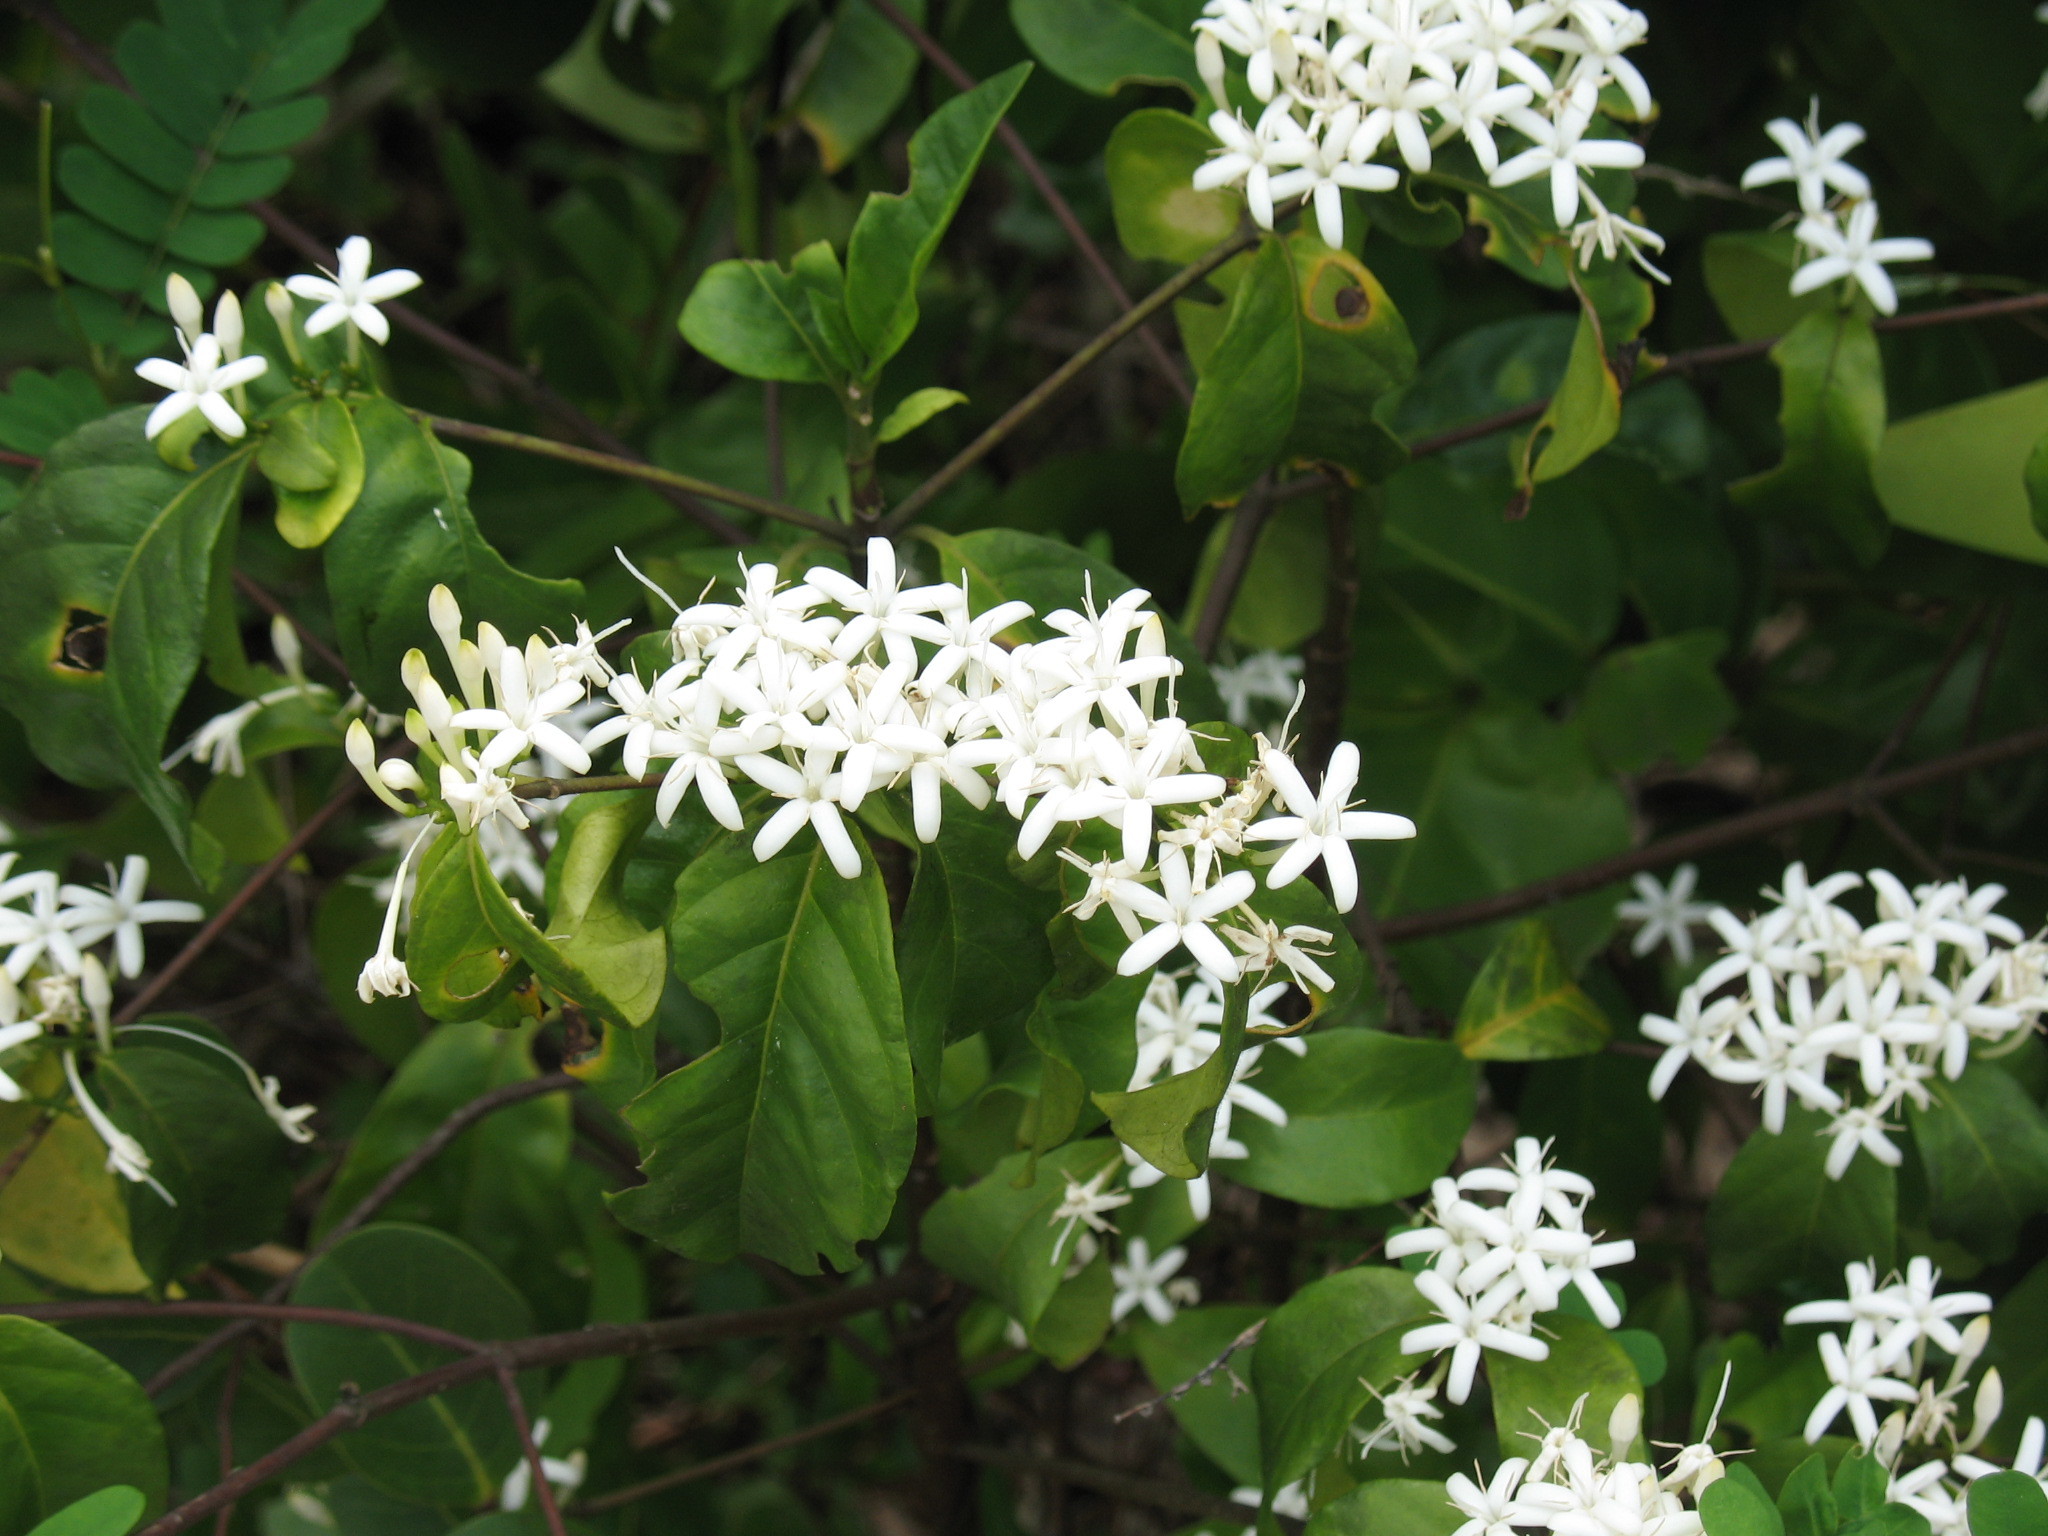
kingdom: Plantae
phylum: Tracheophyta
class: Magnoliopsida
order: Gentianales
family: Rubiaceae
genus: Nichallea
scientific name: Nichallea soyauxii
